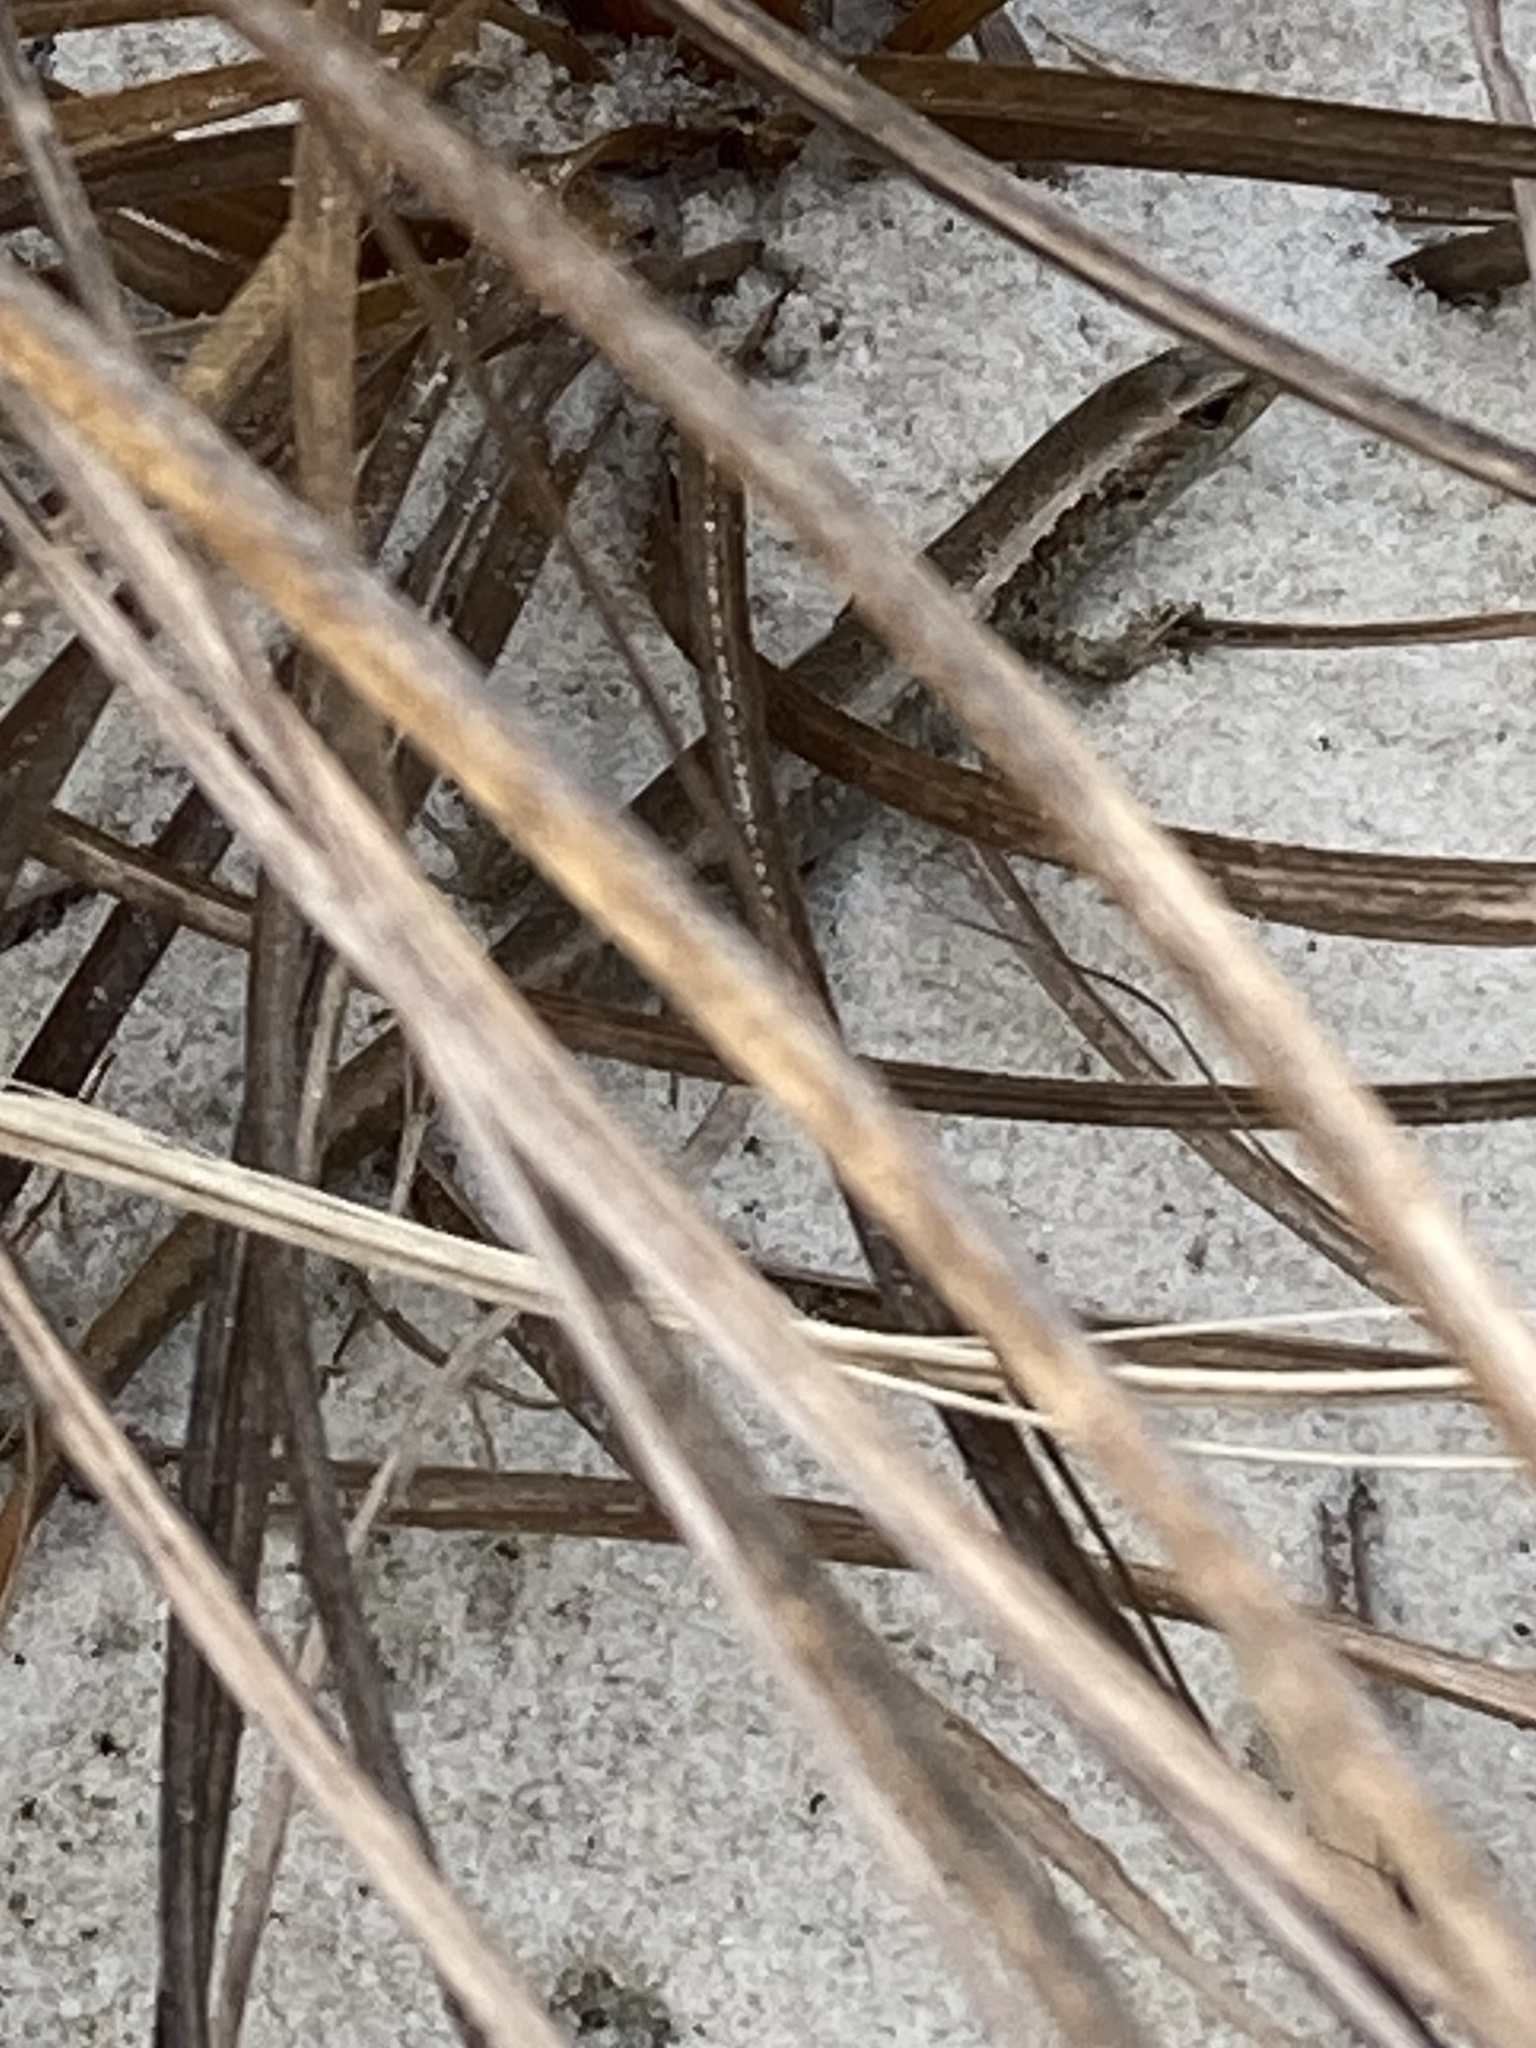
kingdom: Animalia
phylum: Chordata
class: Squamata
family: Scincidae
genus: Oligosoma
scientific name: Oligosoma smithi
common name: Shore skink
